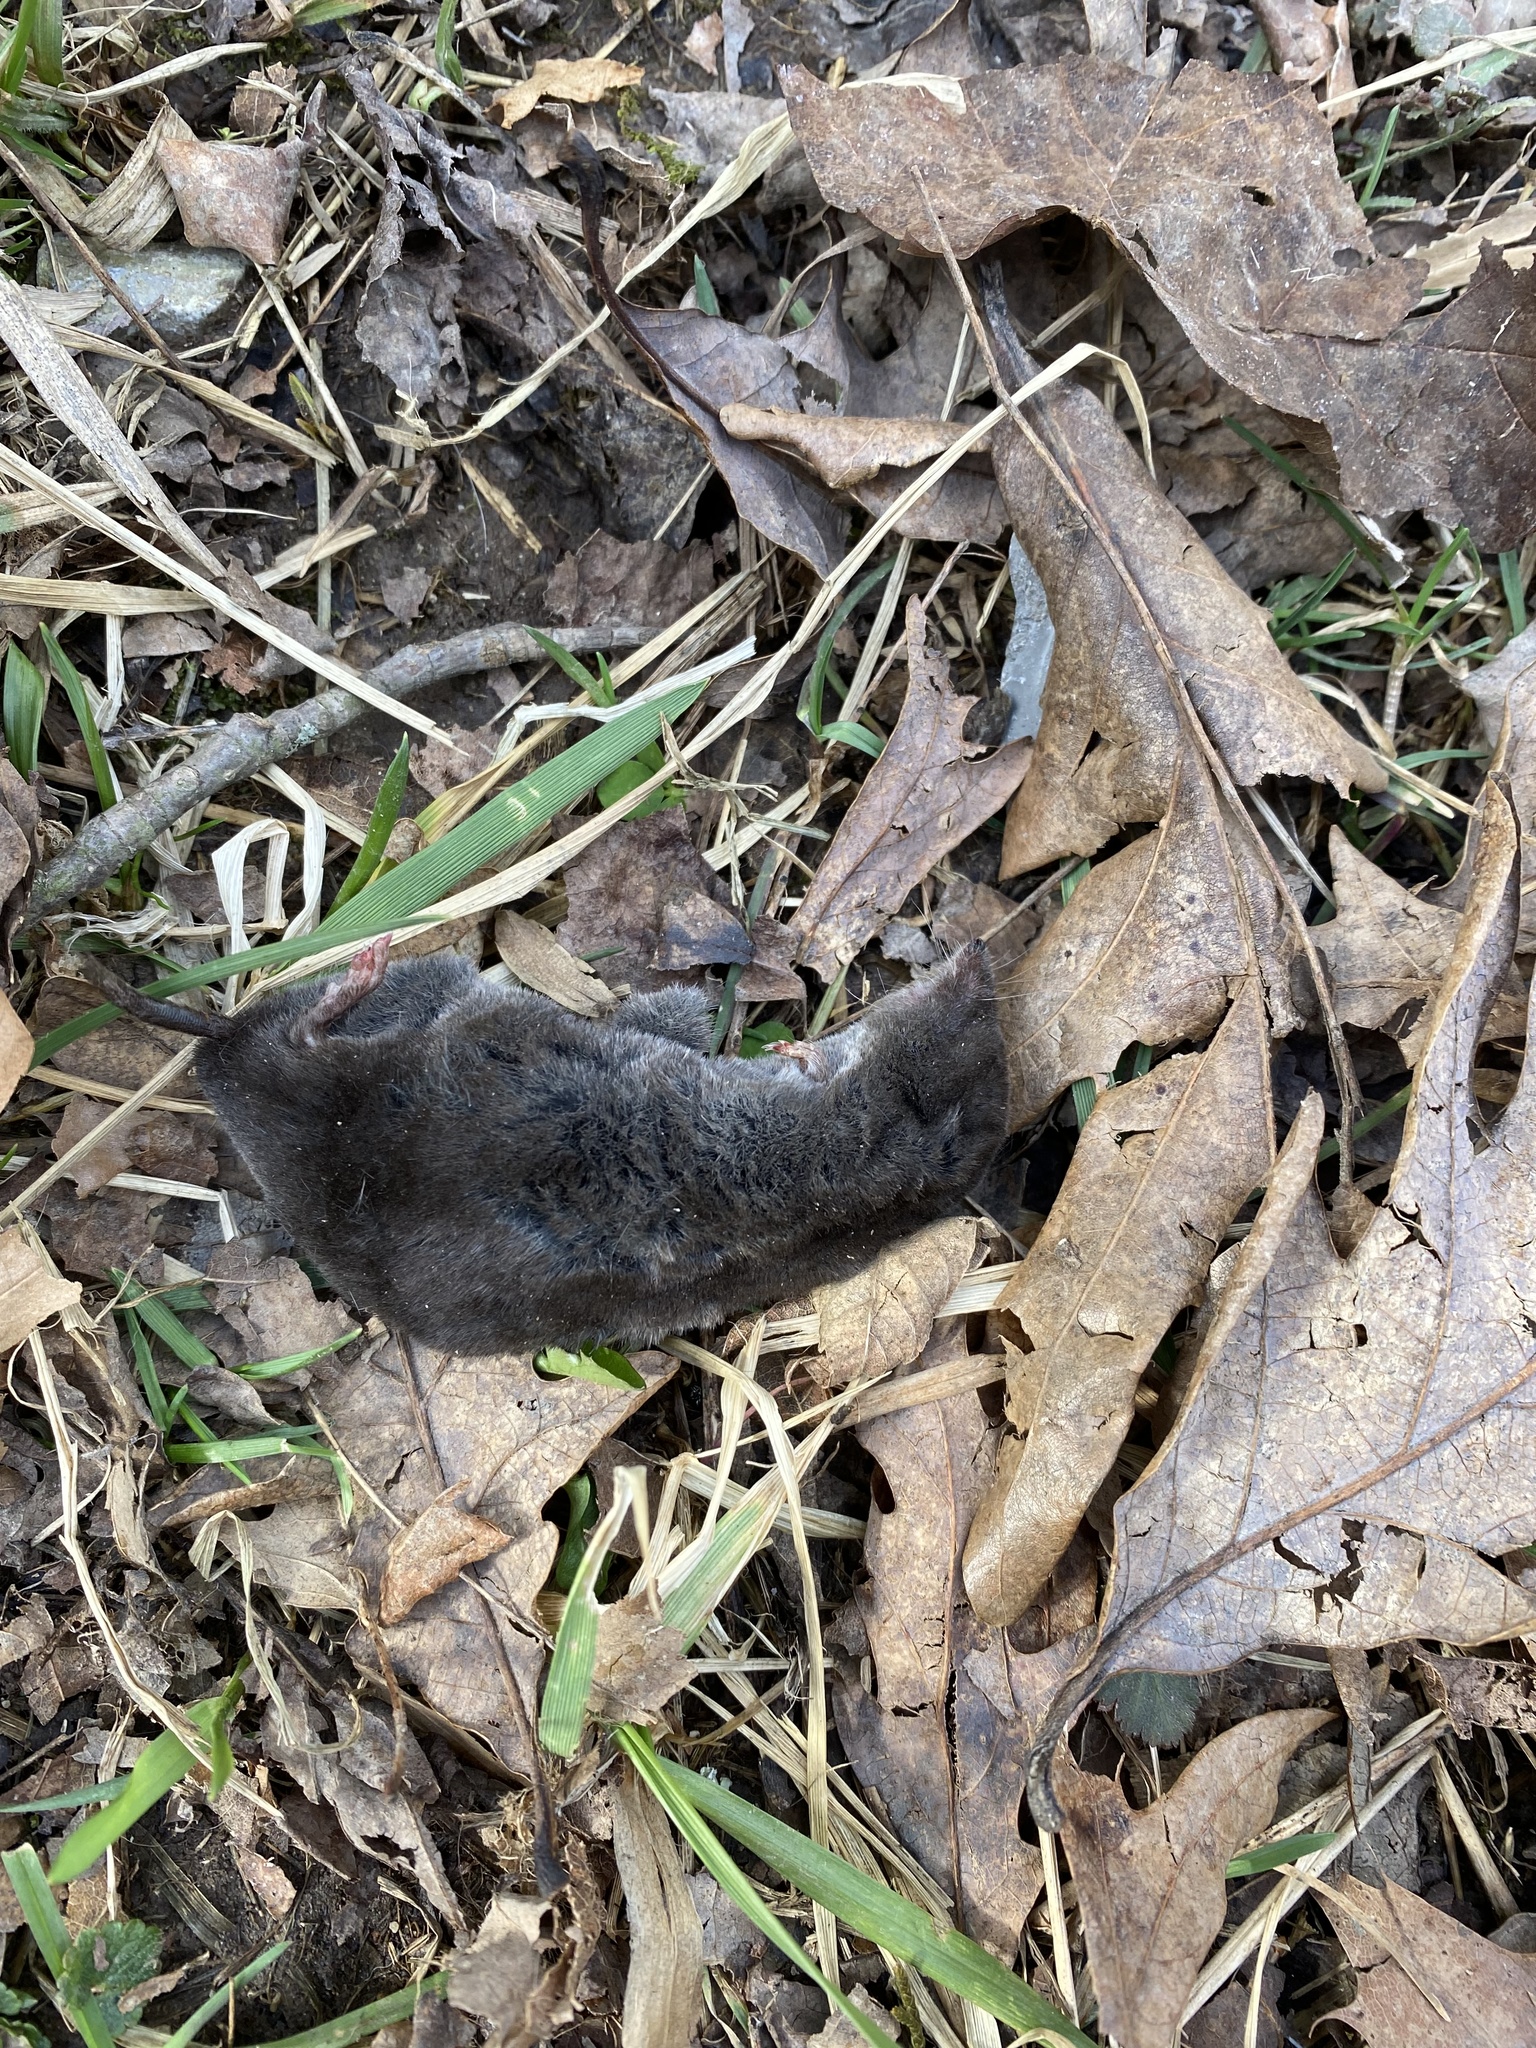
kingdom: Animalia
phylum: Chordata
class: Mammalia
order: Soricomorpha
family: Soricidae
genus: Blarina
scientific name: Blarina brevicauda
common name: Northern short-tailed shrew
